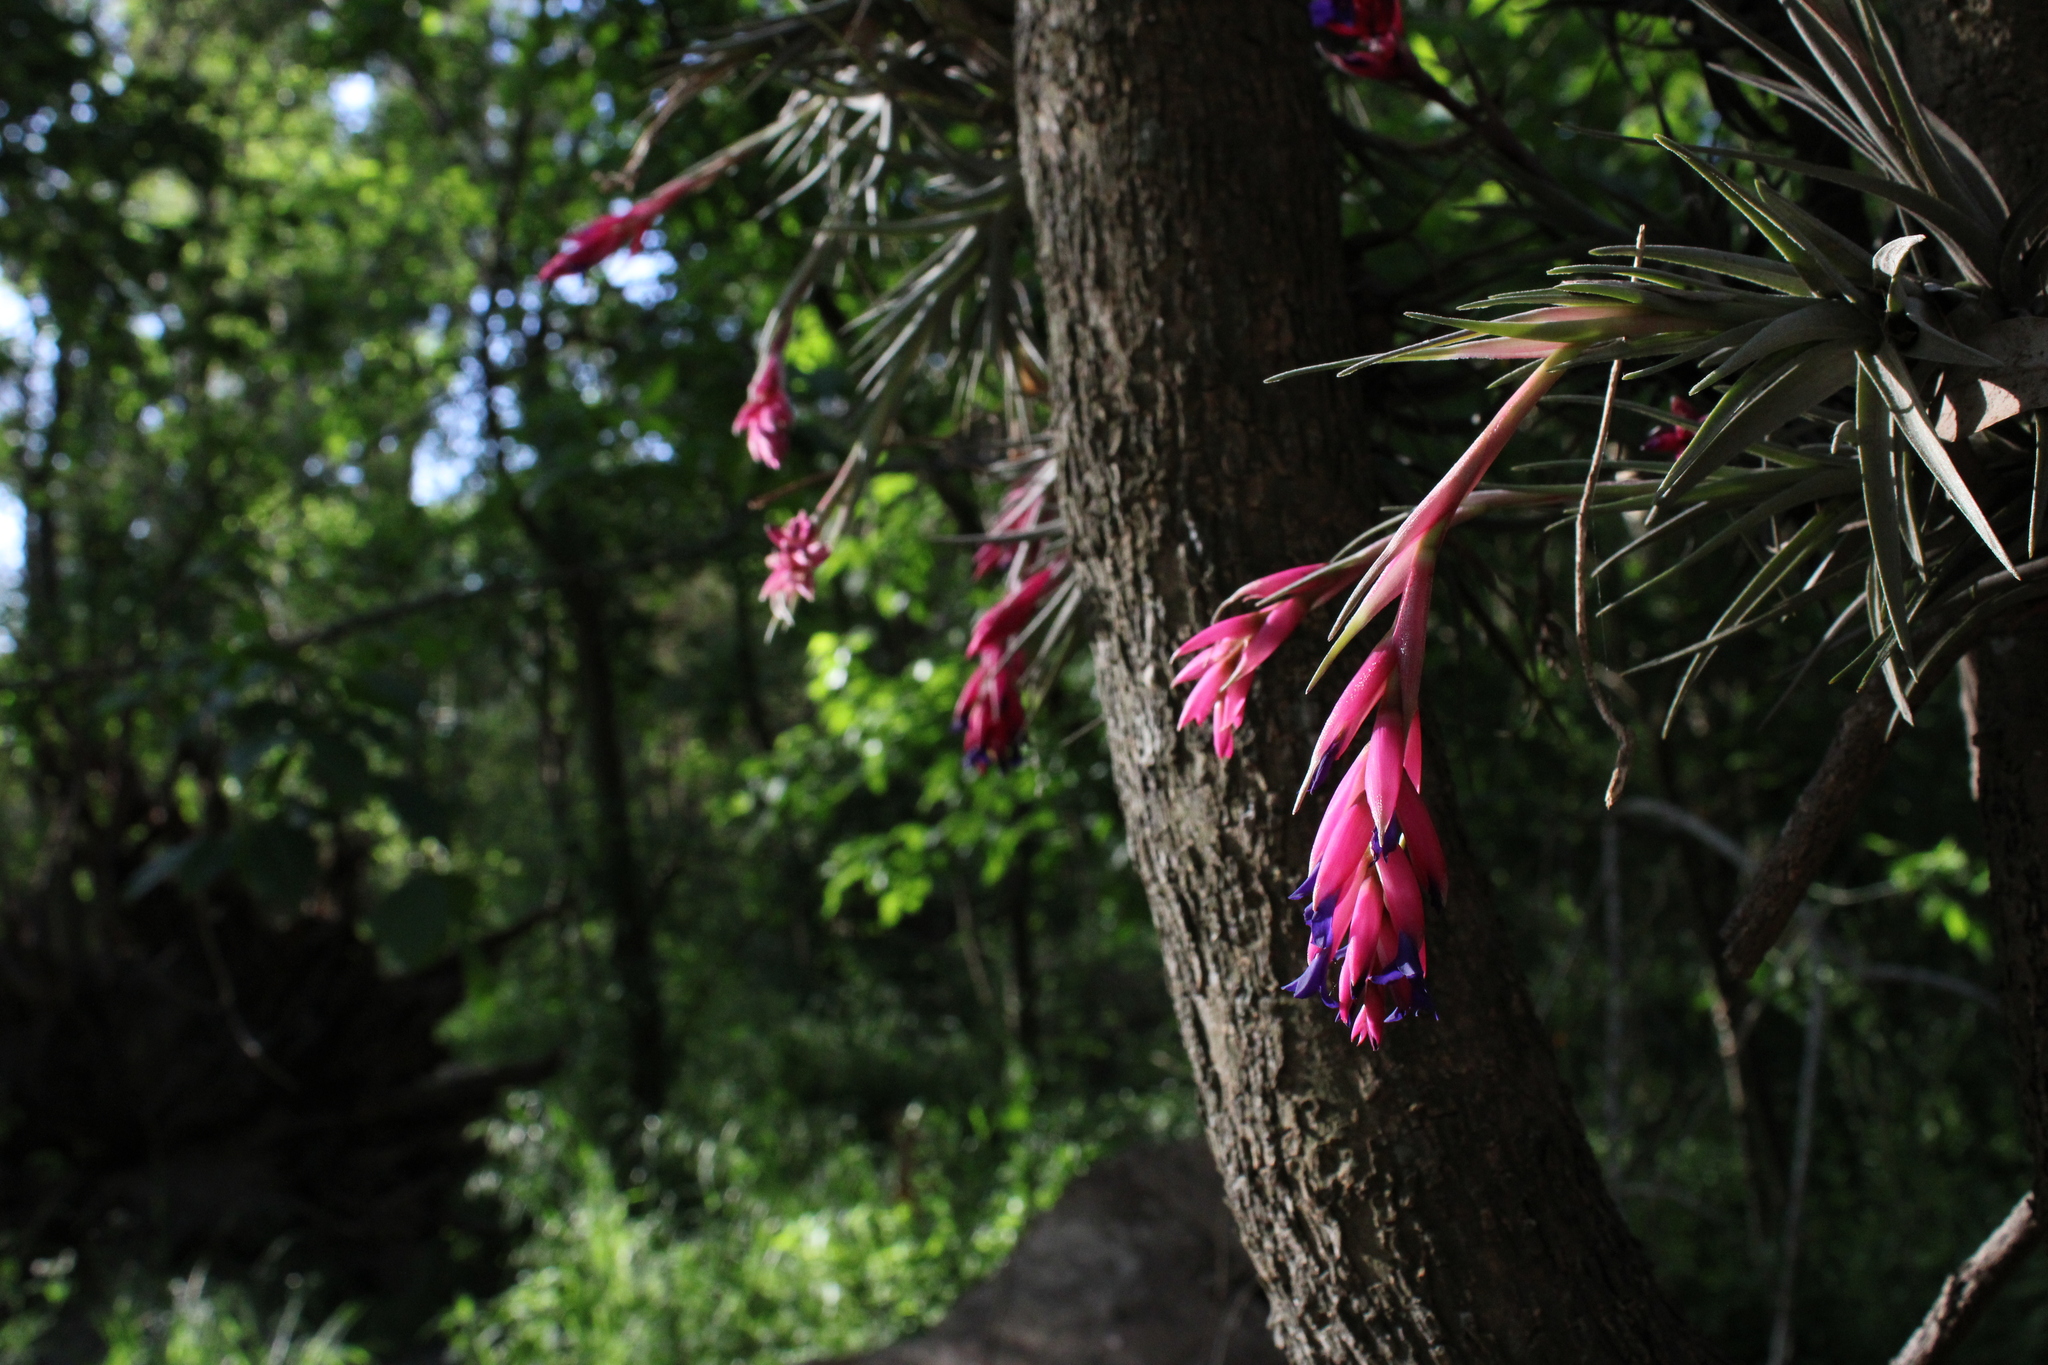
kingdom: Plantae
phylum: Tracheophyta
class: Liliopsida
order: Poales
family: Bromeliaceae
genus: Tillandsia
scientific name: Tillandsia aeranthos
